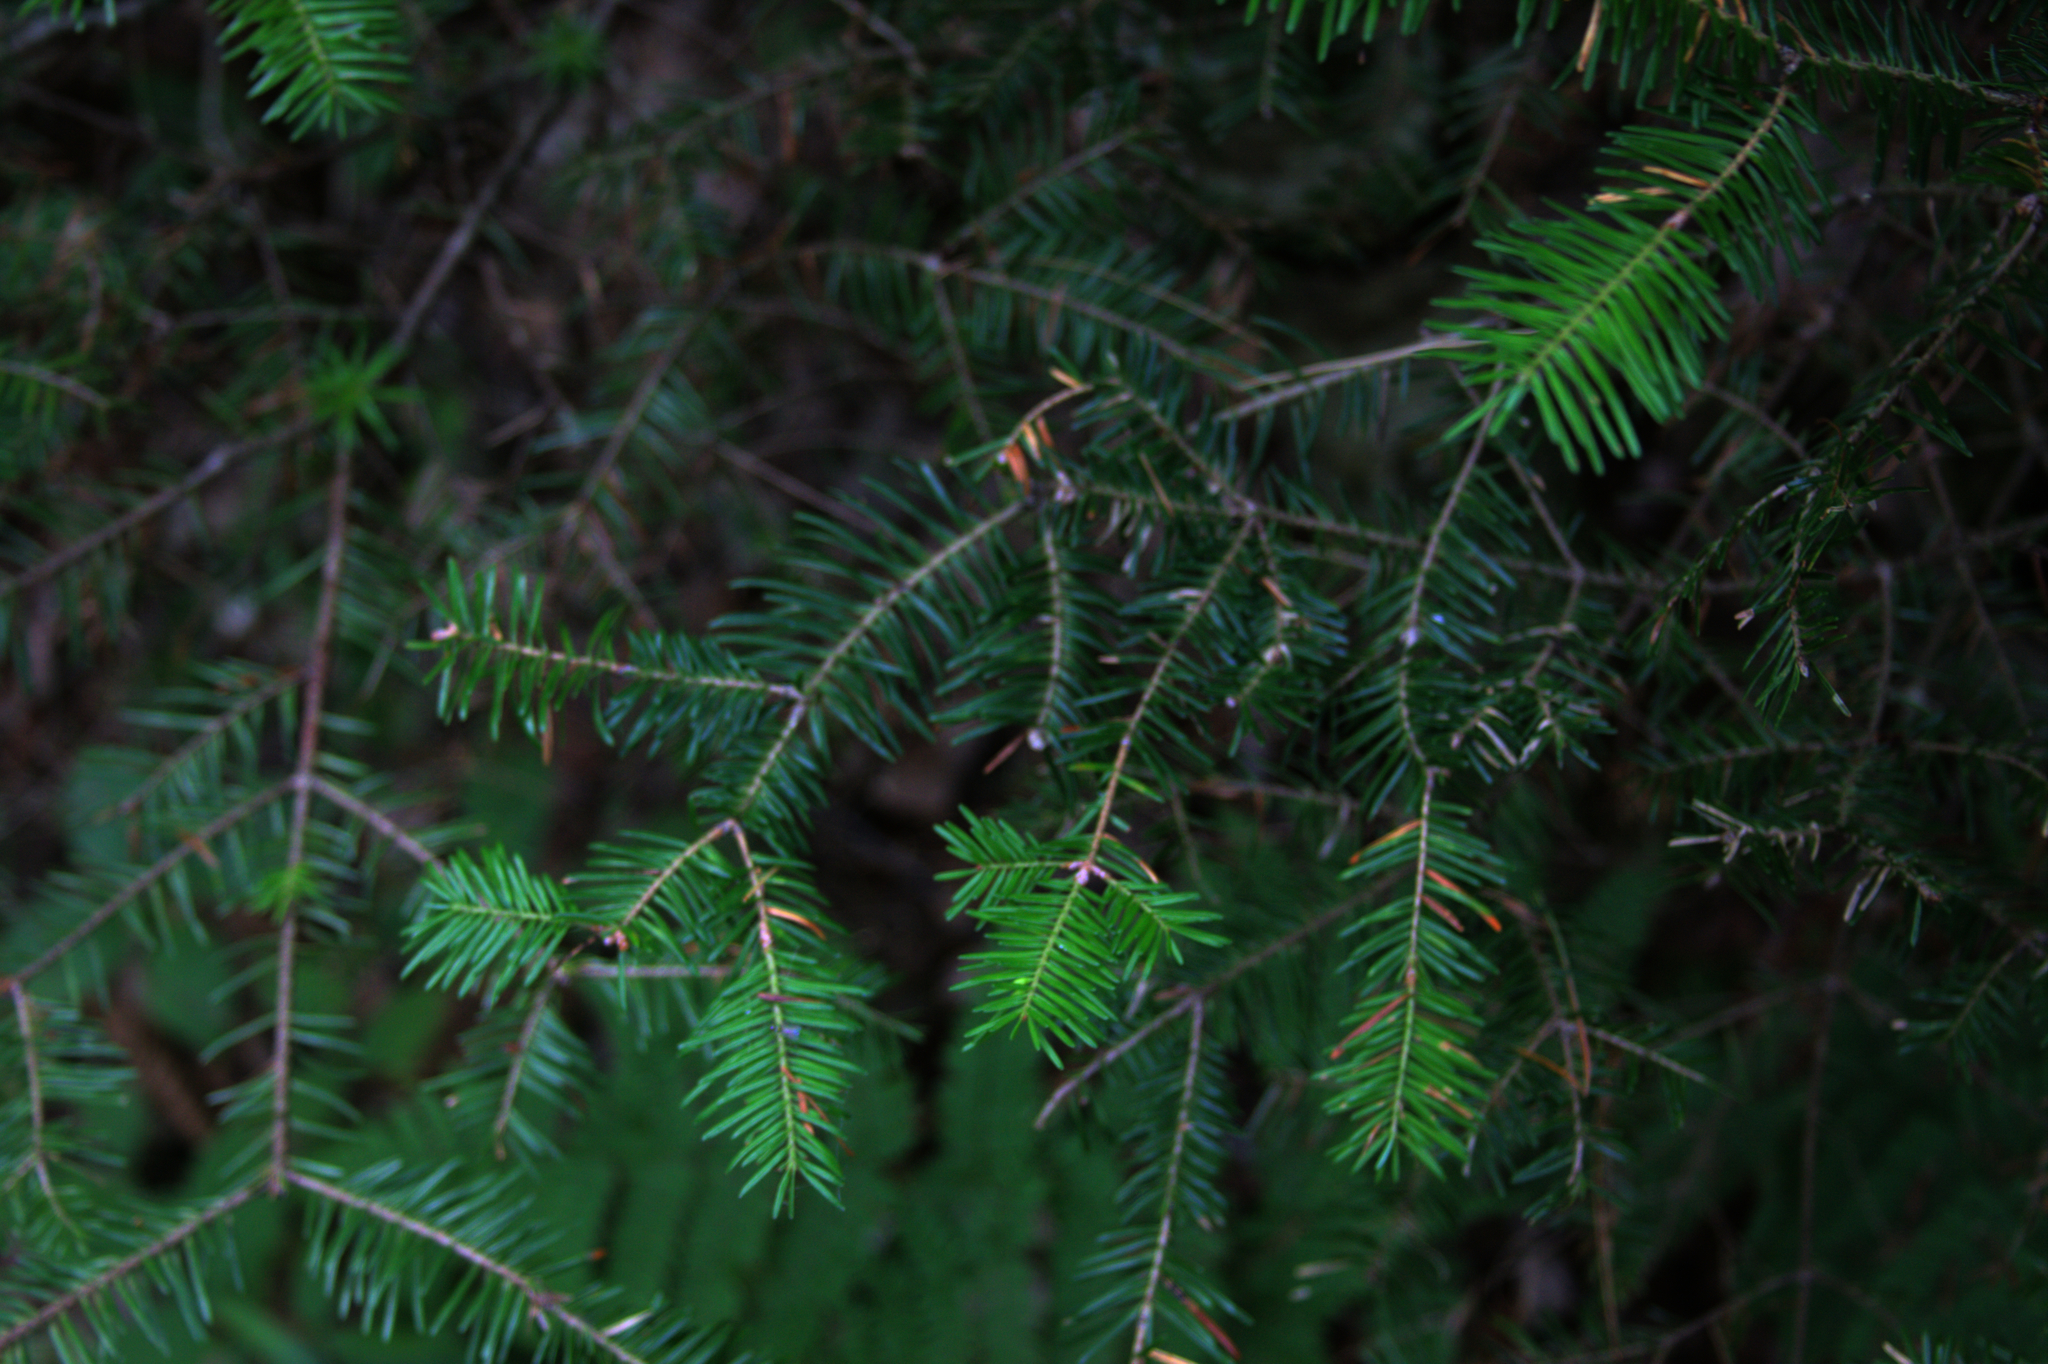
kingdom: Plantae
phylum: Tracheophyta
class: Pinopsida
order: Pinales
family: Pinaceae
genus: Abies
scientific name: Abies balsamea
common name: Balsam fir
